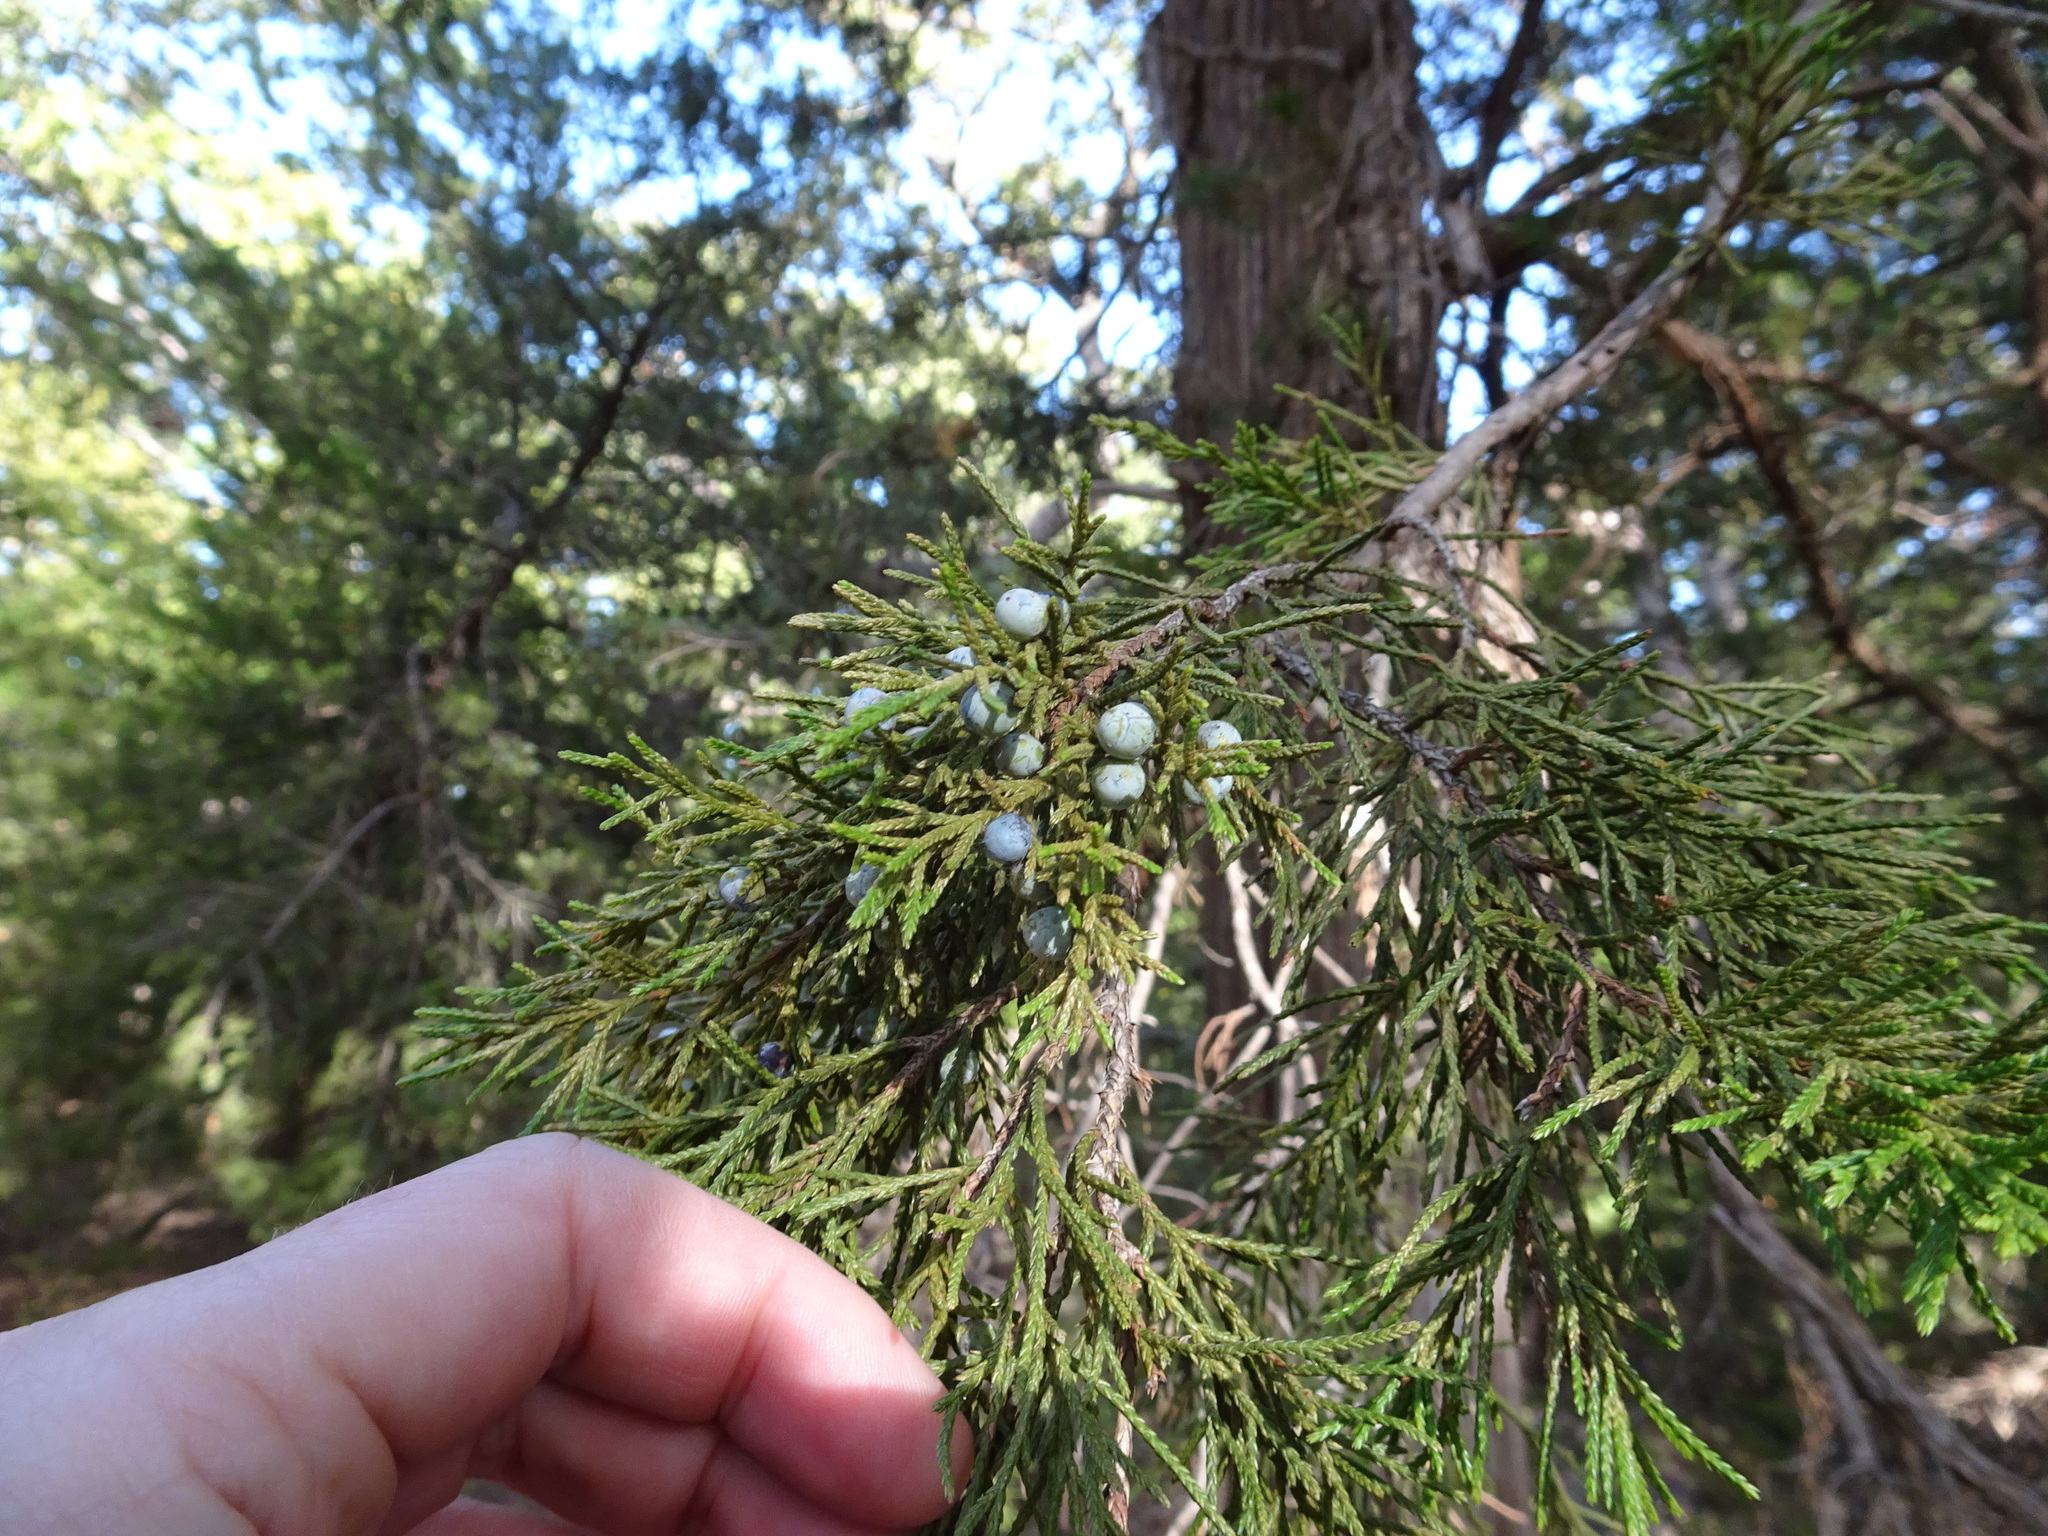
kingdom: Plantae
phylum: Tracheophyta
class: Pinopsida
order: Pinales
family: Cupressaceae
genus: Juniperus
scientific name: Juniperus virginiana
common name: Red juniper
